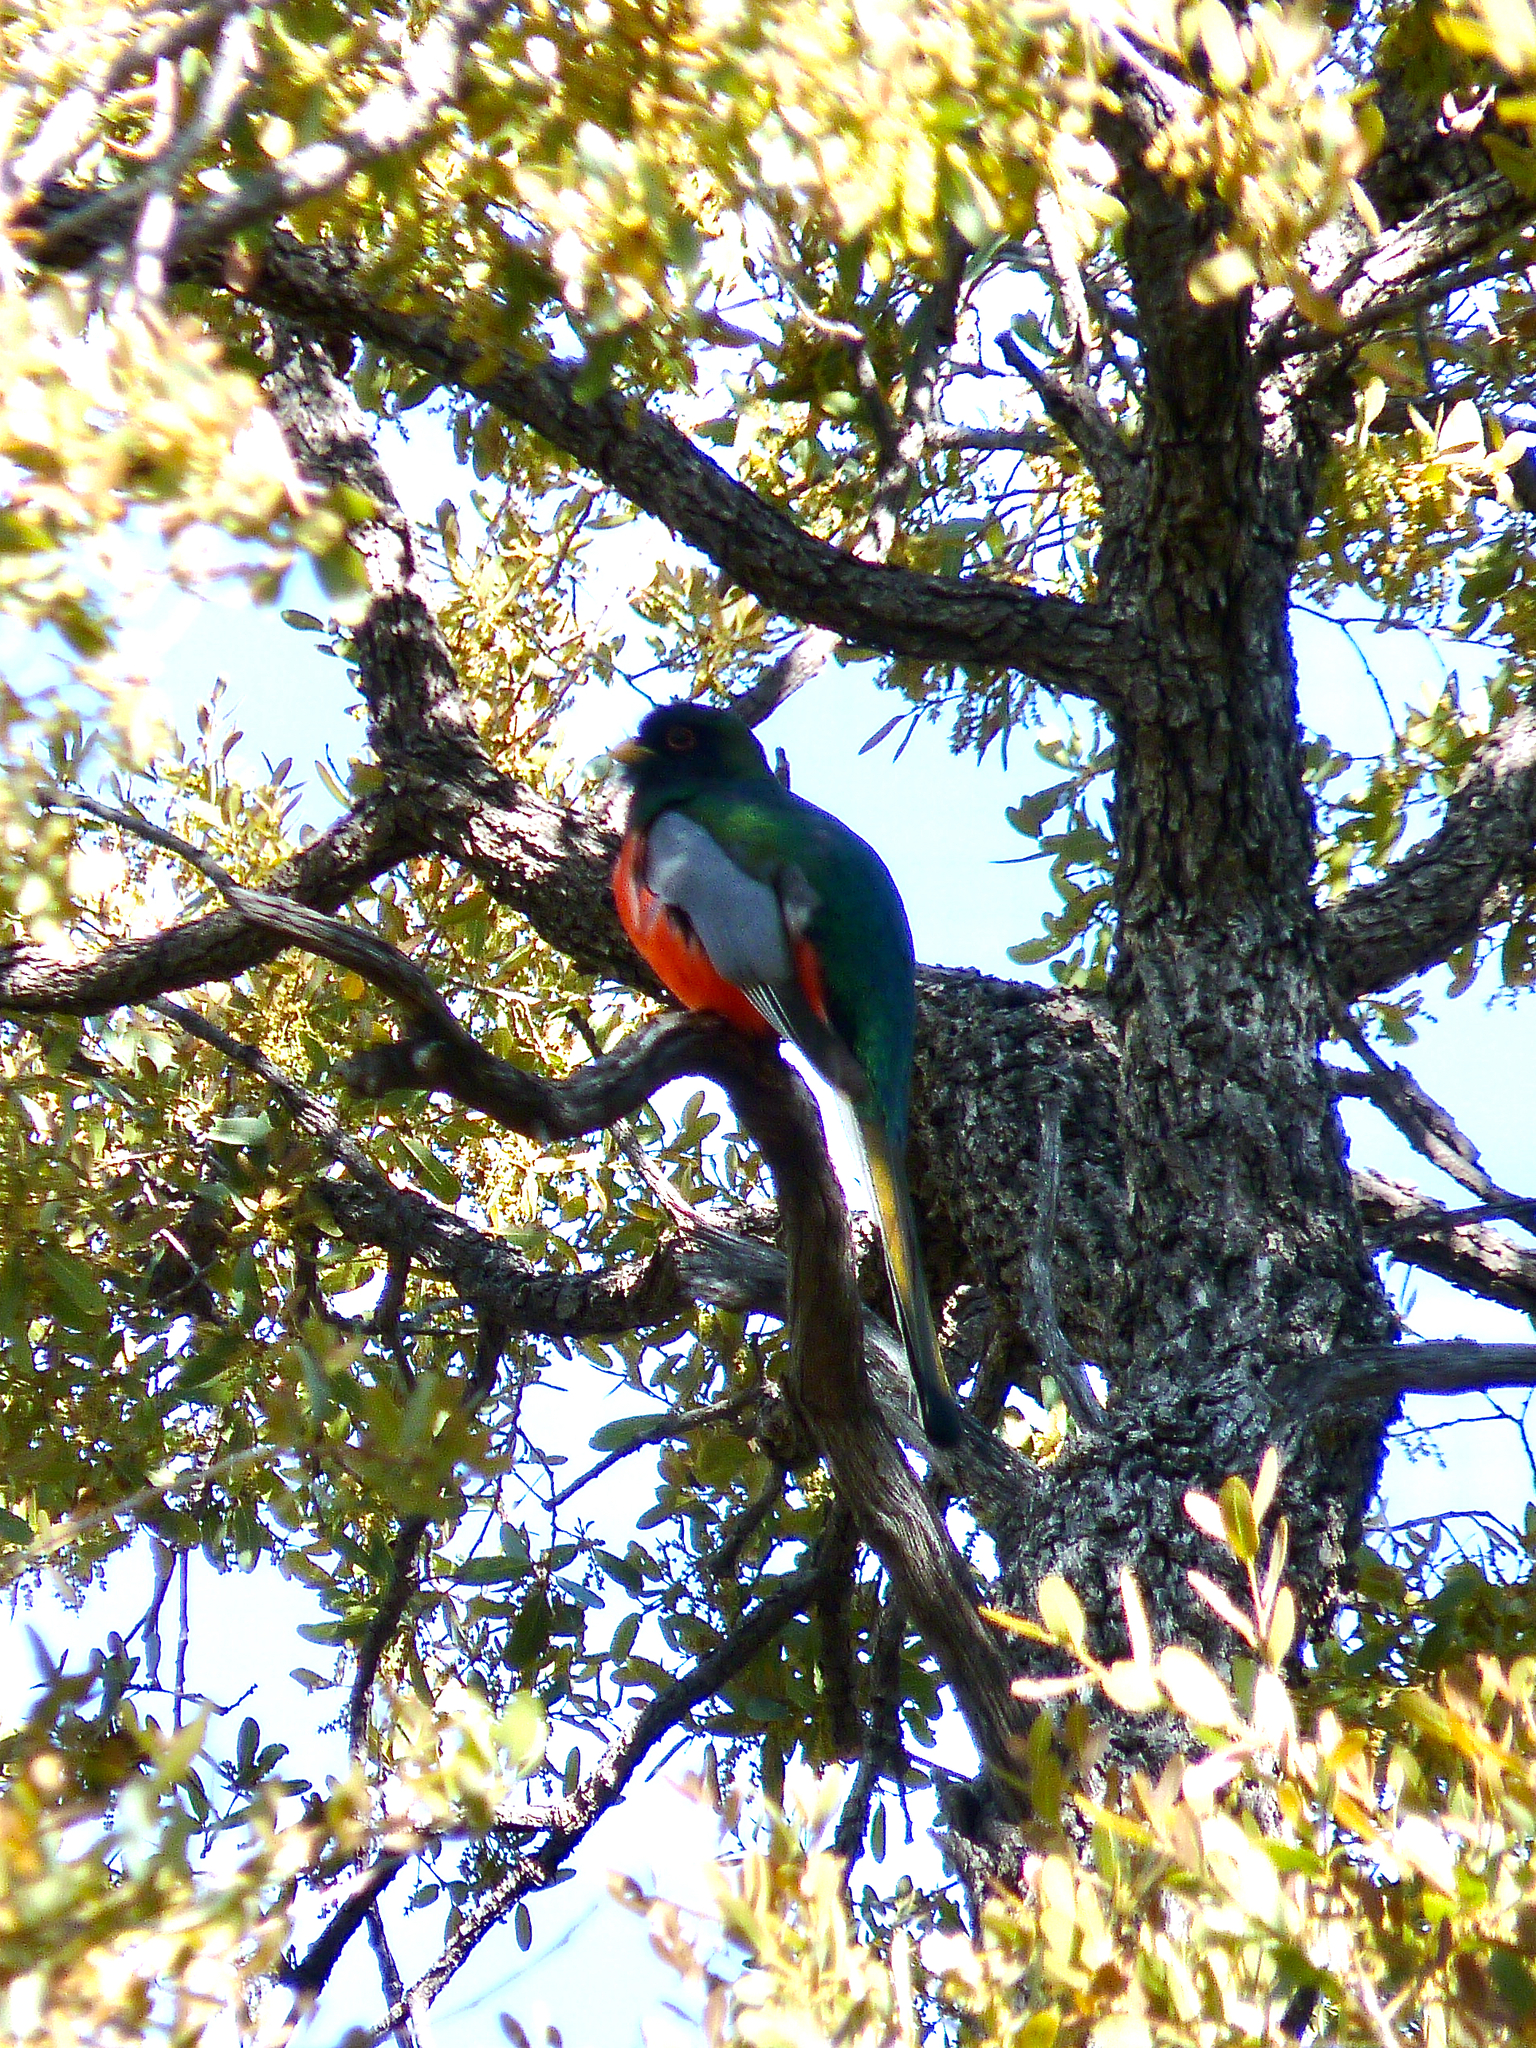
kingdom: Animalia
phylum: Chordata
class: Aves
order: Trogoniformes
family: Trogonidae
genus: Trogon
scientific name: Trogon elegans
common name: Elegant trogon
